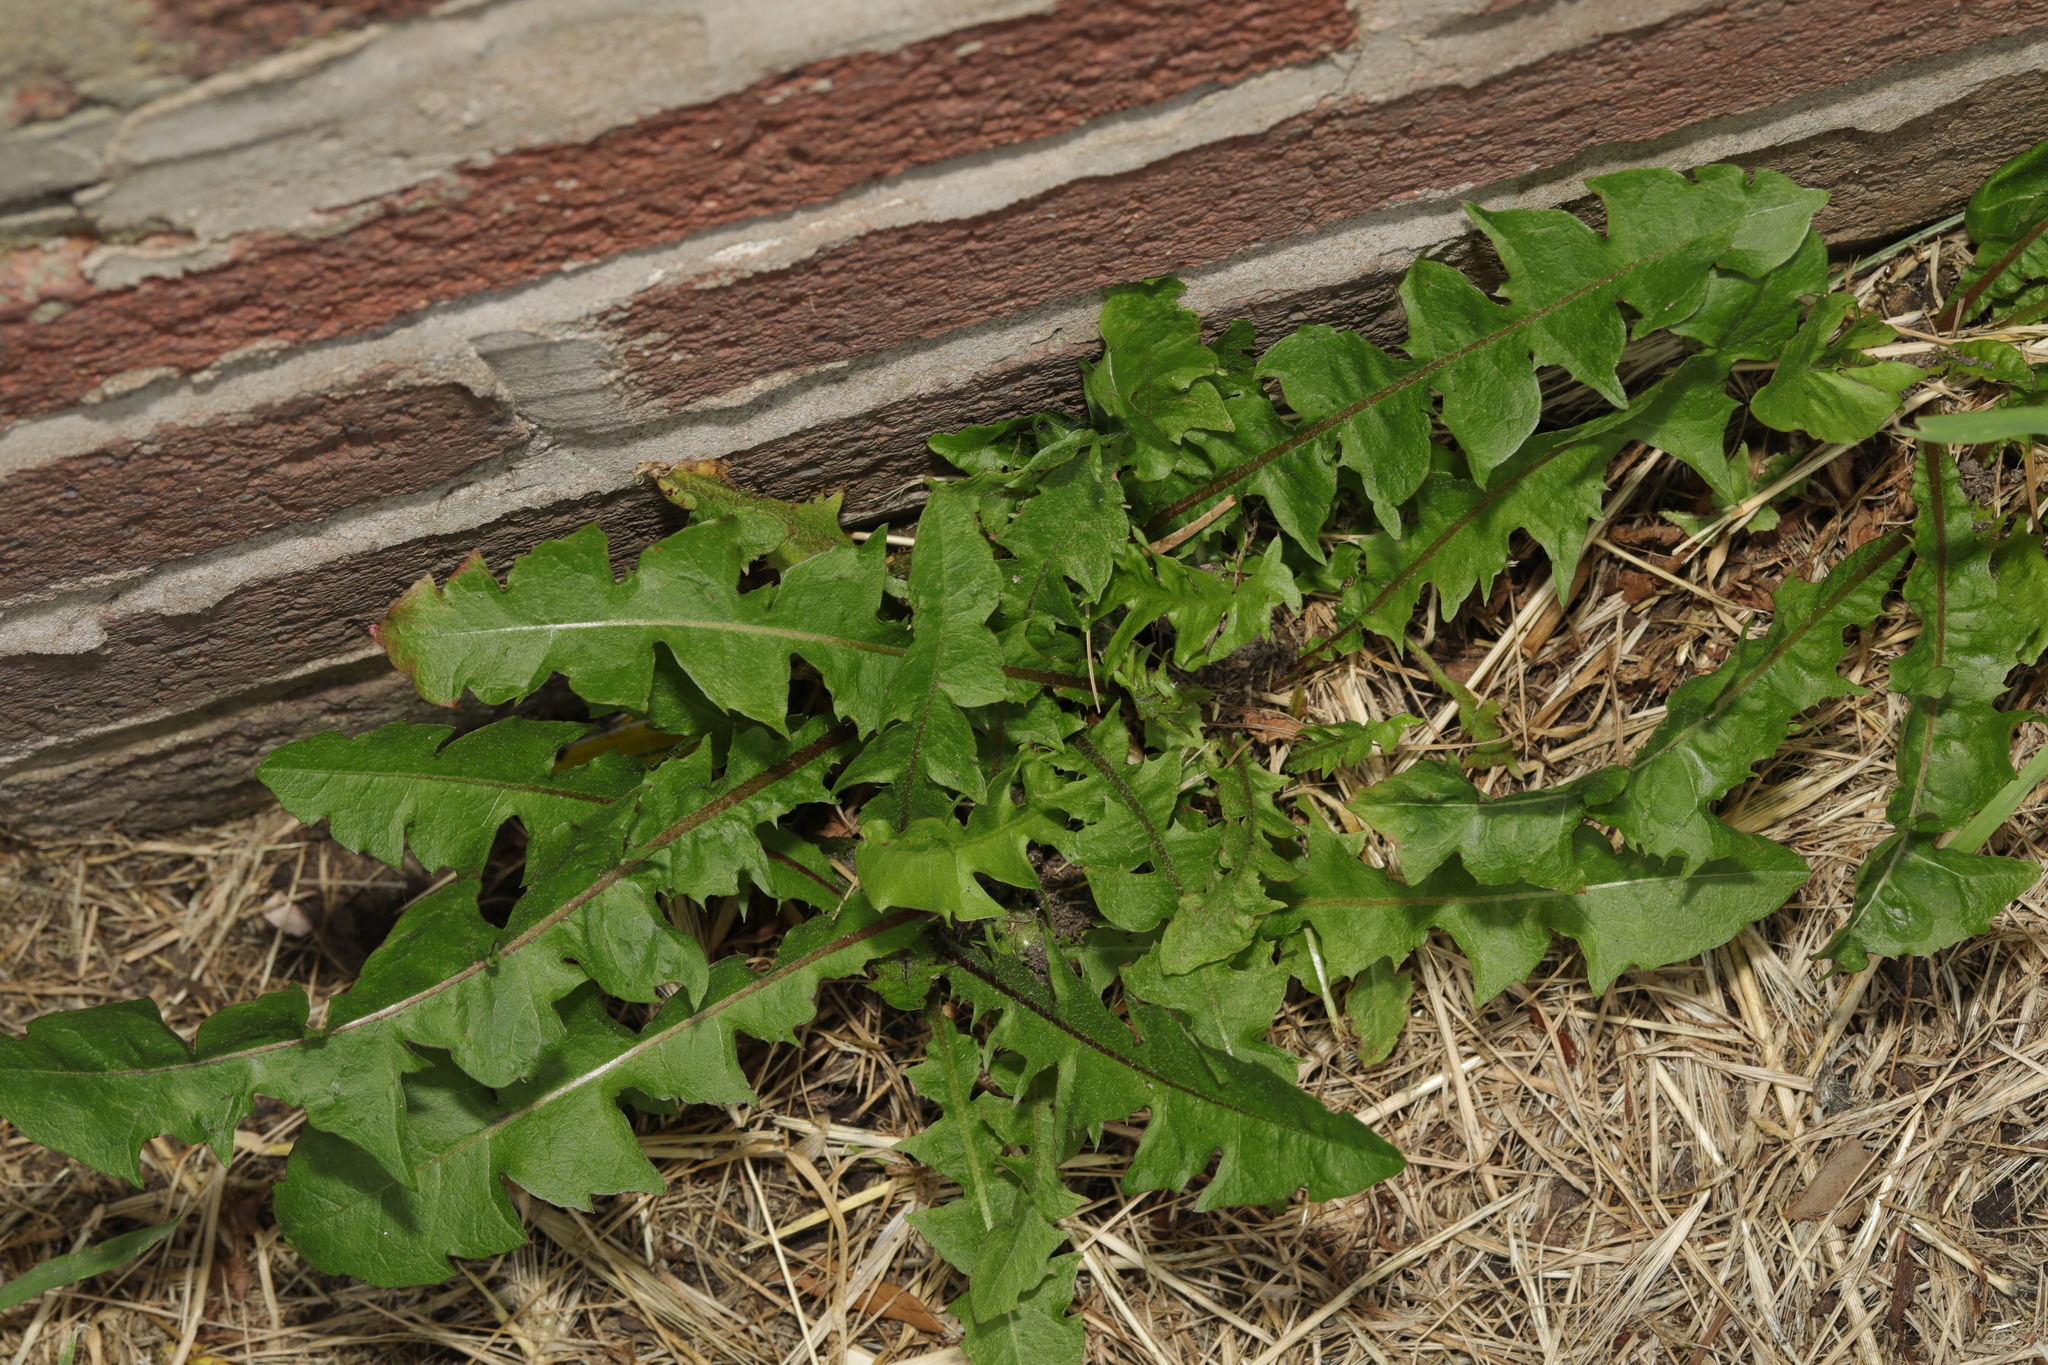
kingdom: Plantae
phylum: Tracheophyta
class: Magnoliopsida
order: Asterales
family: Asteraceae
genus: Taraxacum
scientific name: Taraxacum officinale
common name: Common dandelion
